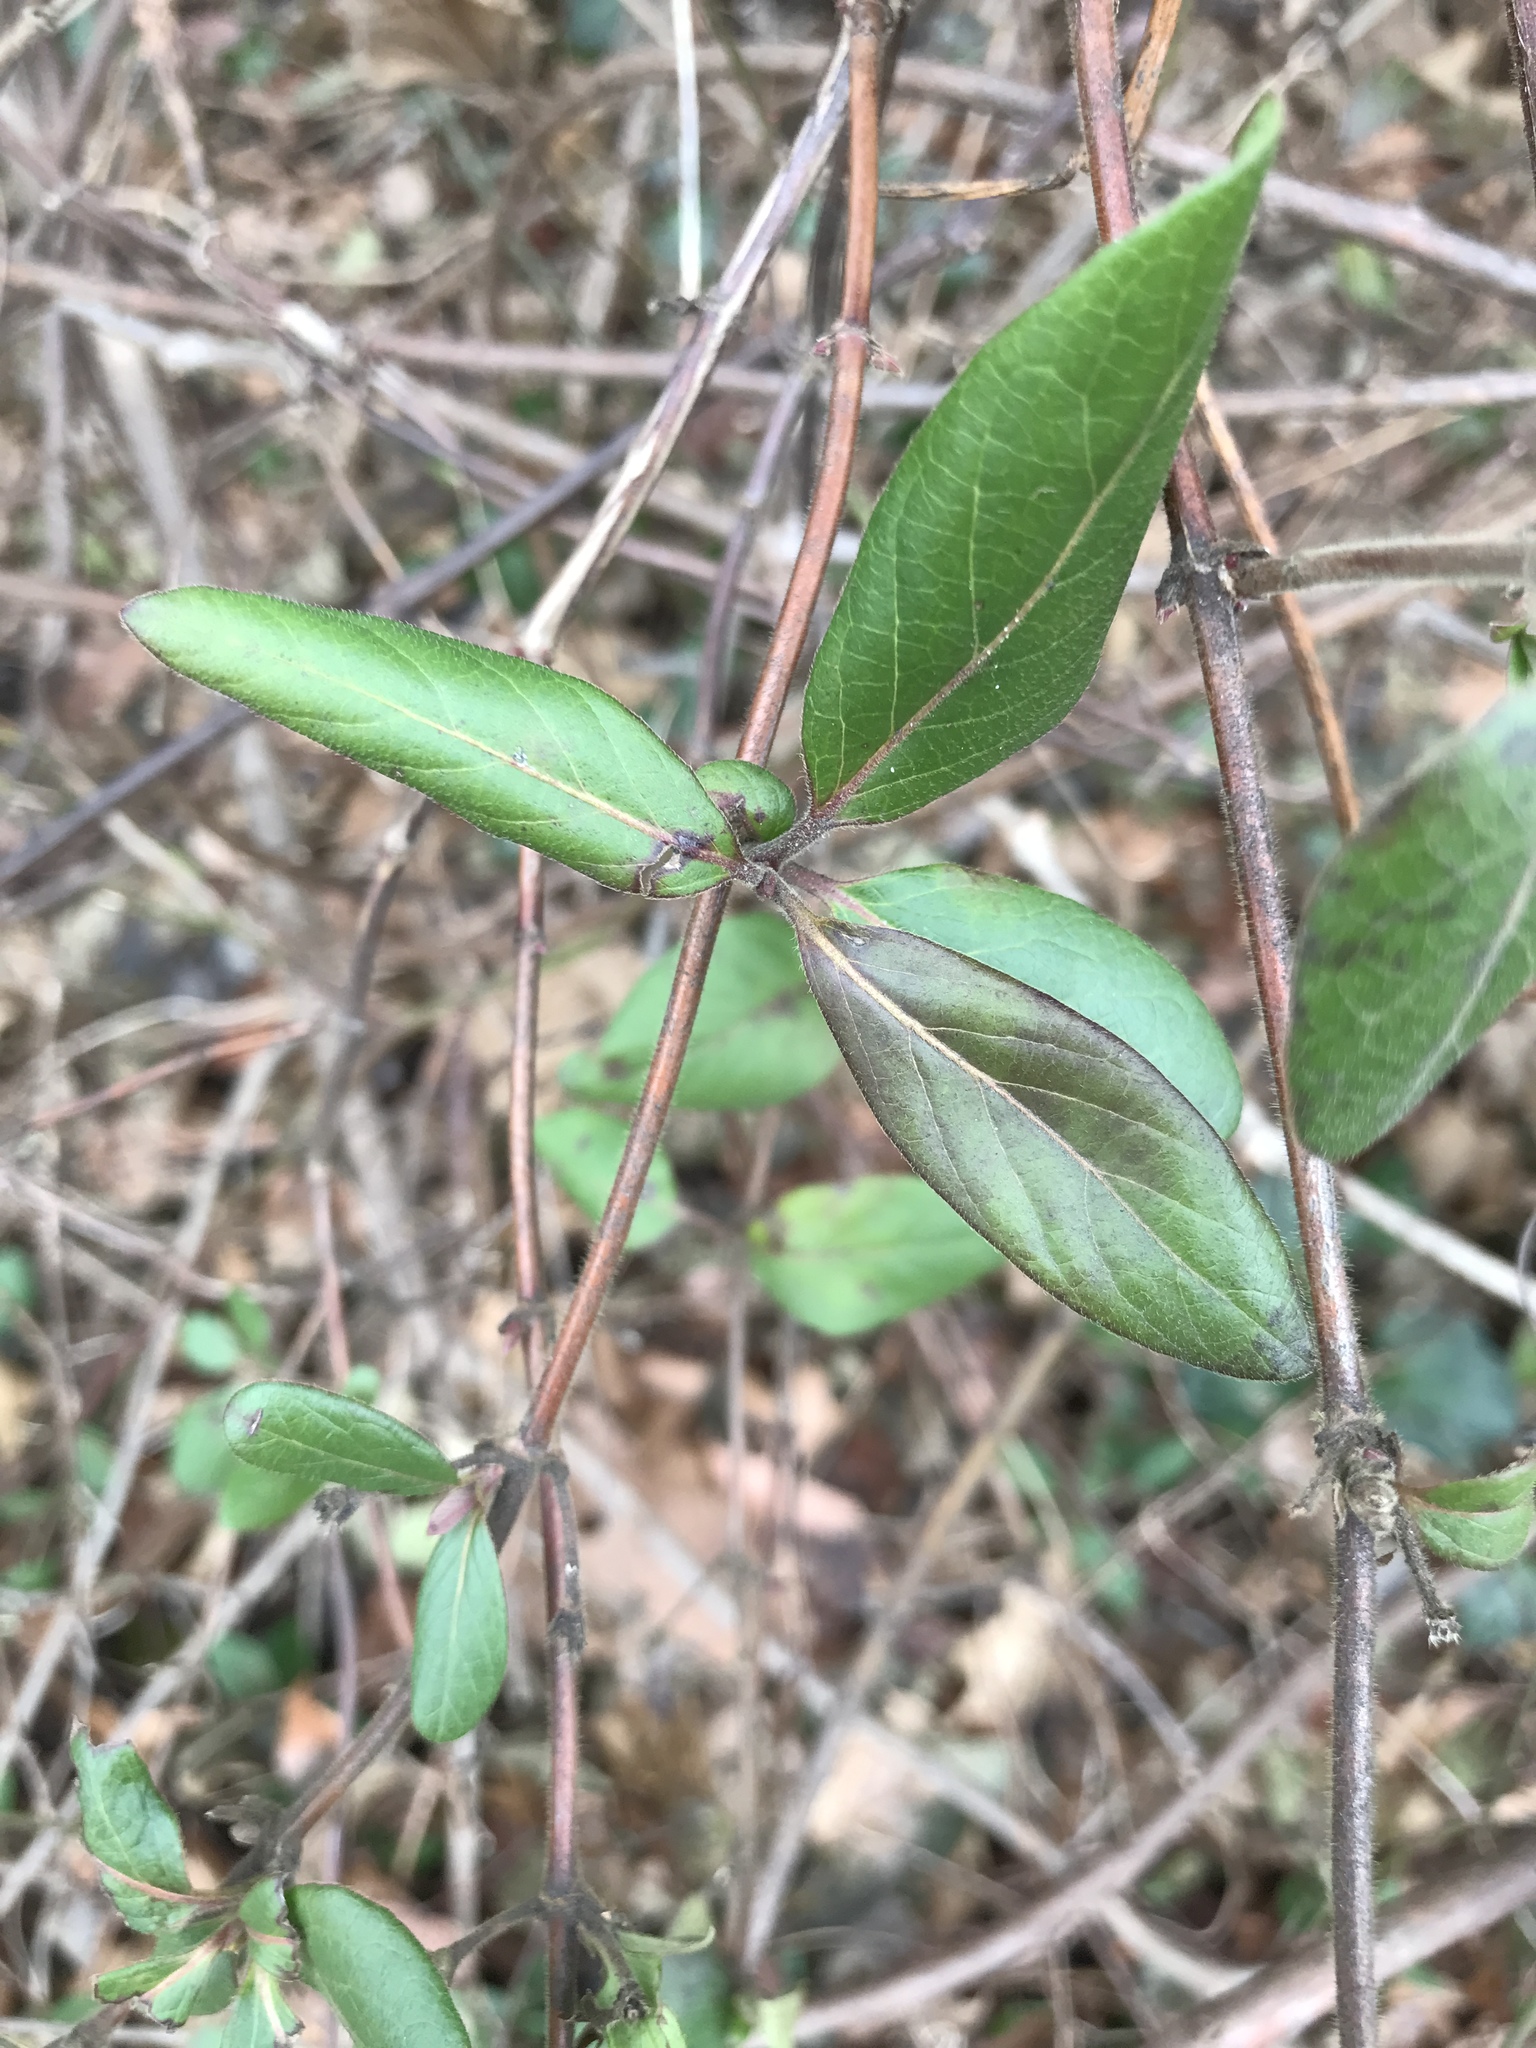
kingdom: Plantae
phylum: Tracheophyta
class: Magnoliopsida
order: Dipsacales
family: Caprifoliaceae
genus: Lonicera
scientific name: Lonicera japonica
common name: Japanese honeysuckle
